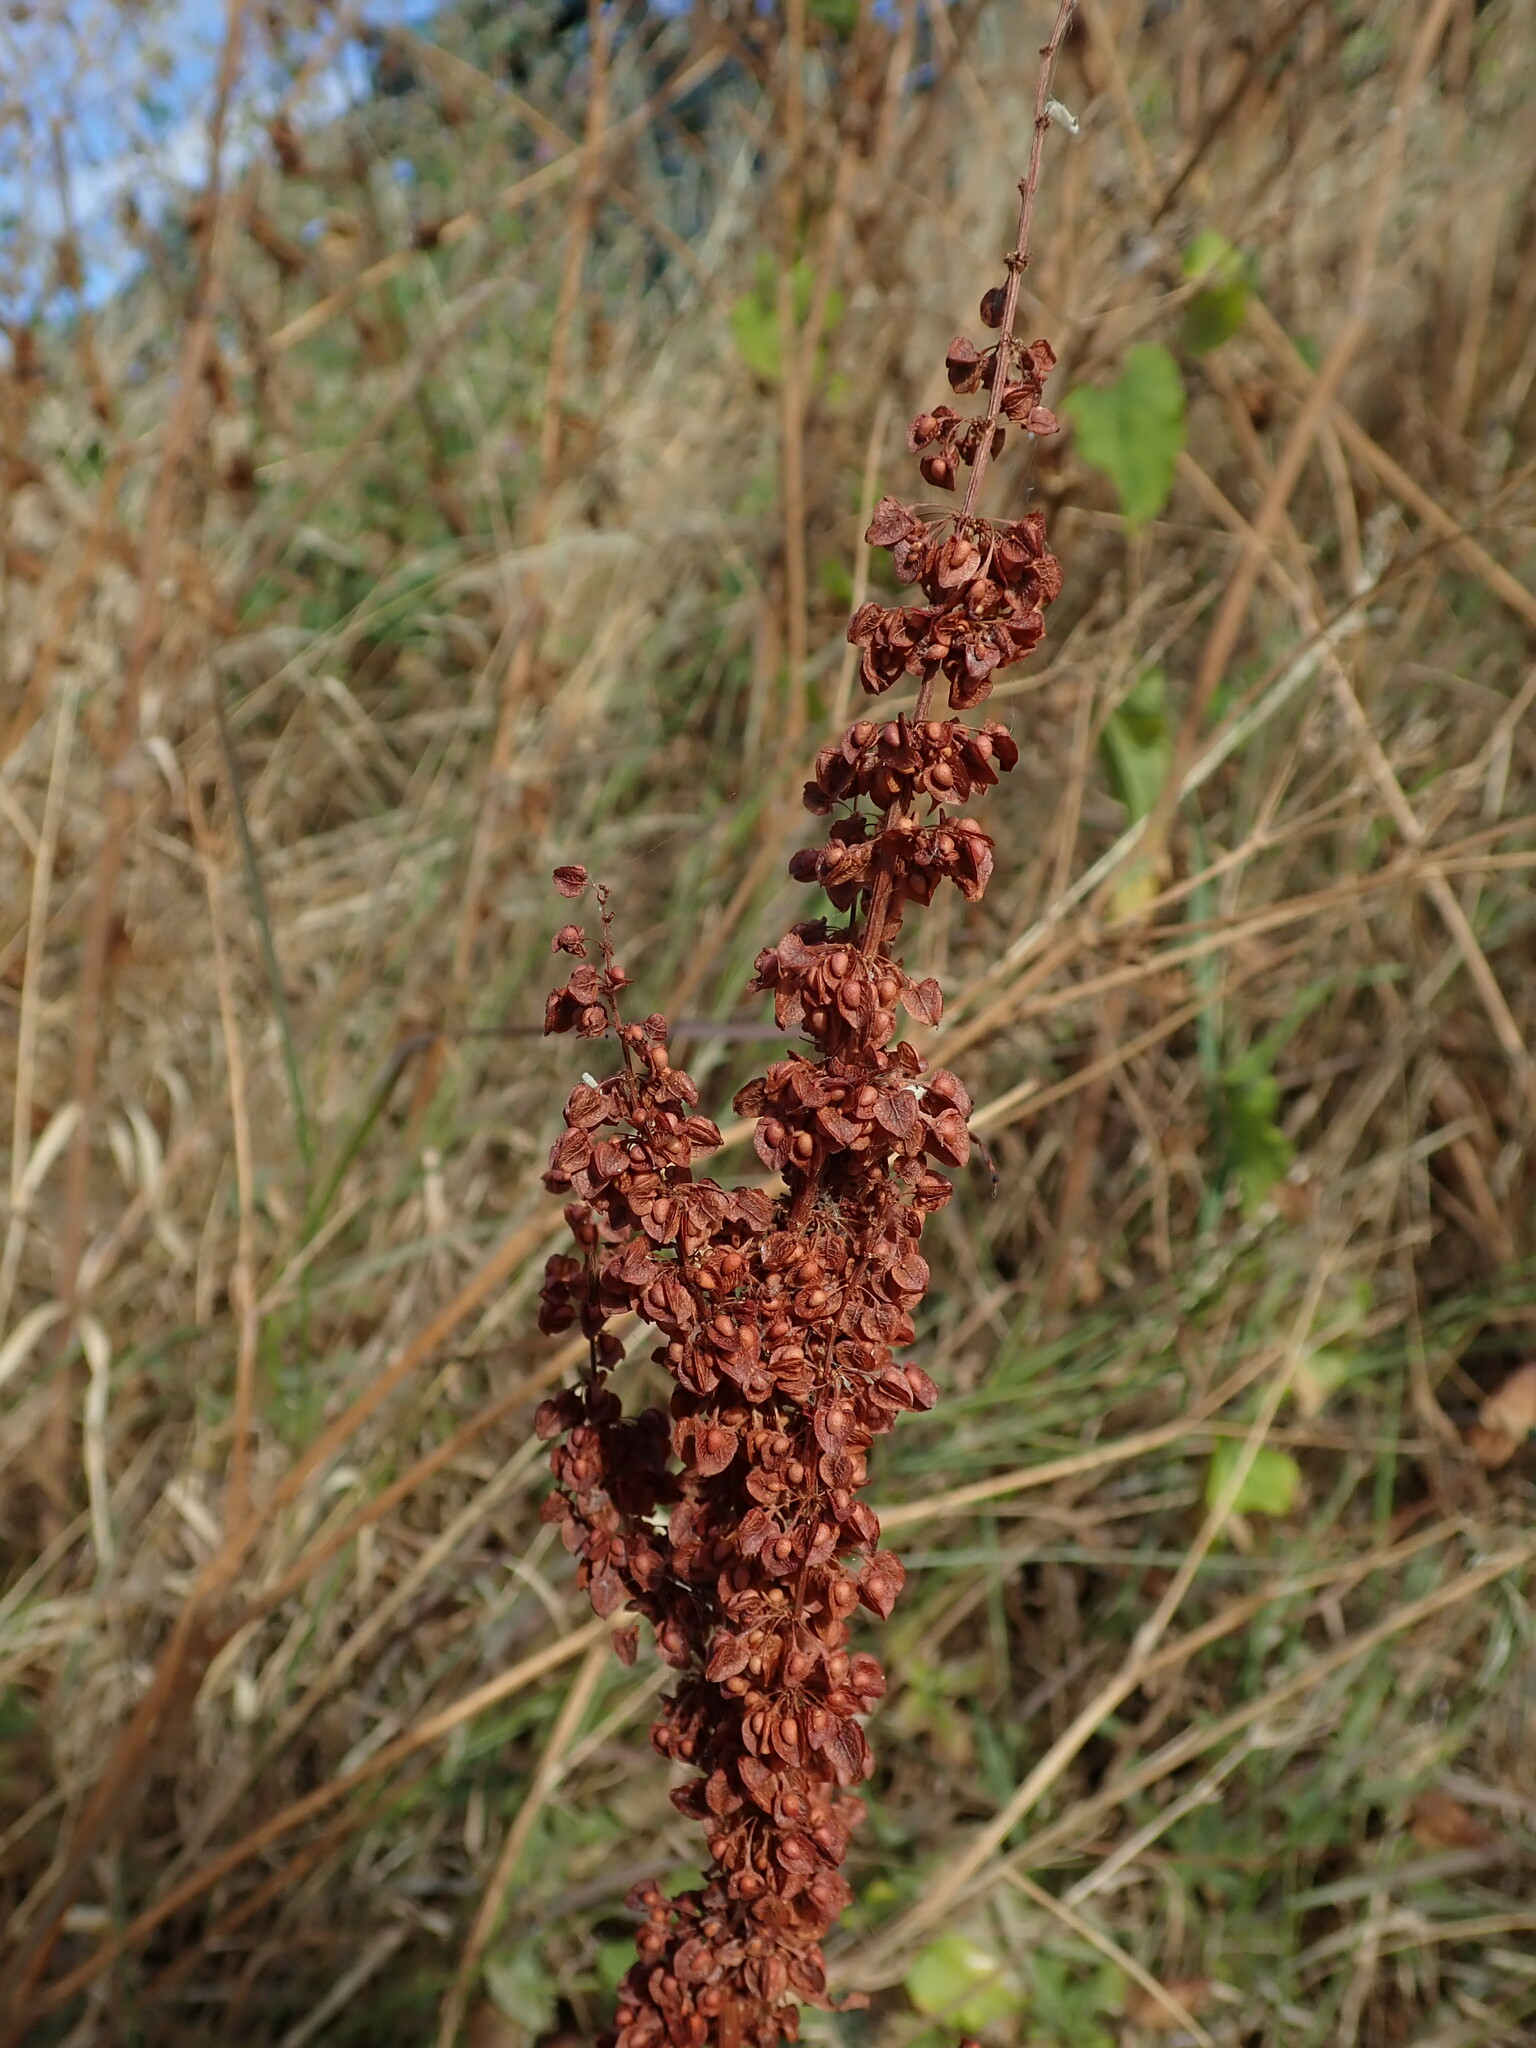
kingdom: Plantae
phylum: Tracheophyta
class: Magnoliopsida
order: Caryophyllales
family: Polygonaceae
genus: Rumex
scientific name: Rumex crispus
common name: Curled dock
